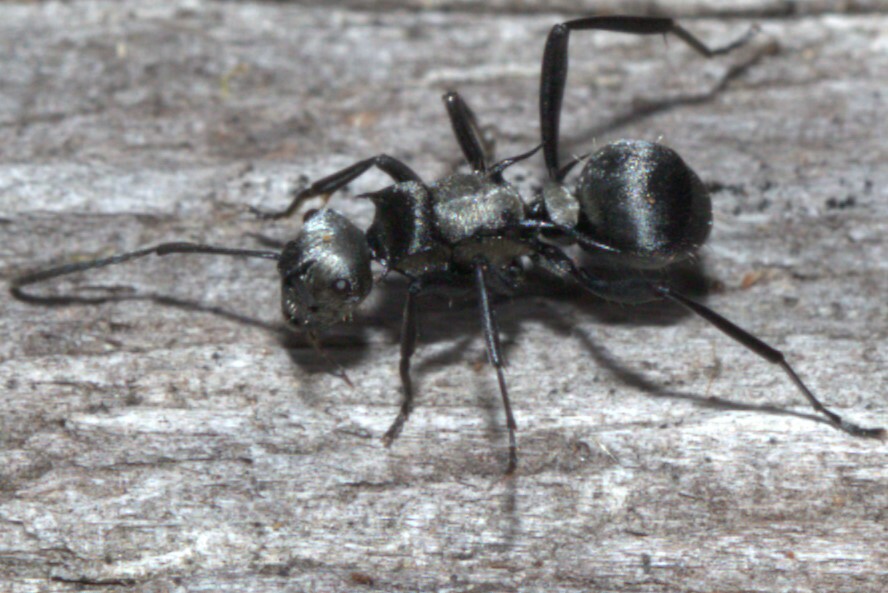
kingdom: Animalia
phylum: Arthropoda
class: Insecta
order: Hymenoptera
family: Formicidae
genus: Polyrhachis
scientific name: Polyrhachis daemeli
